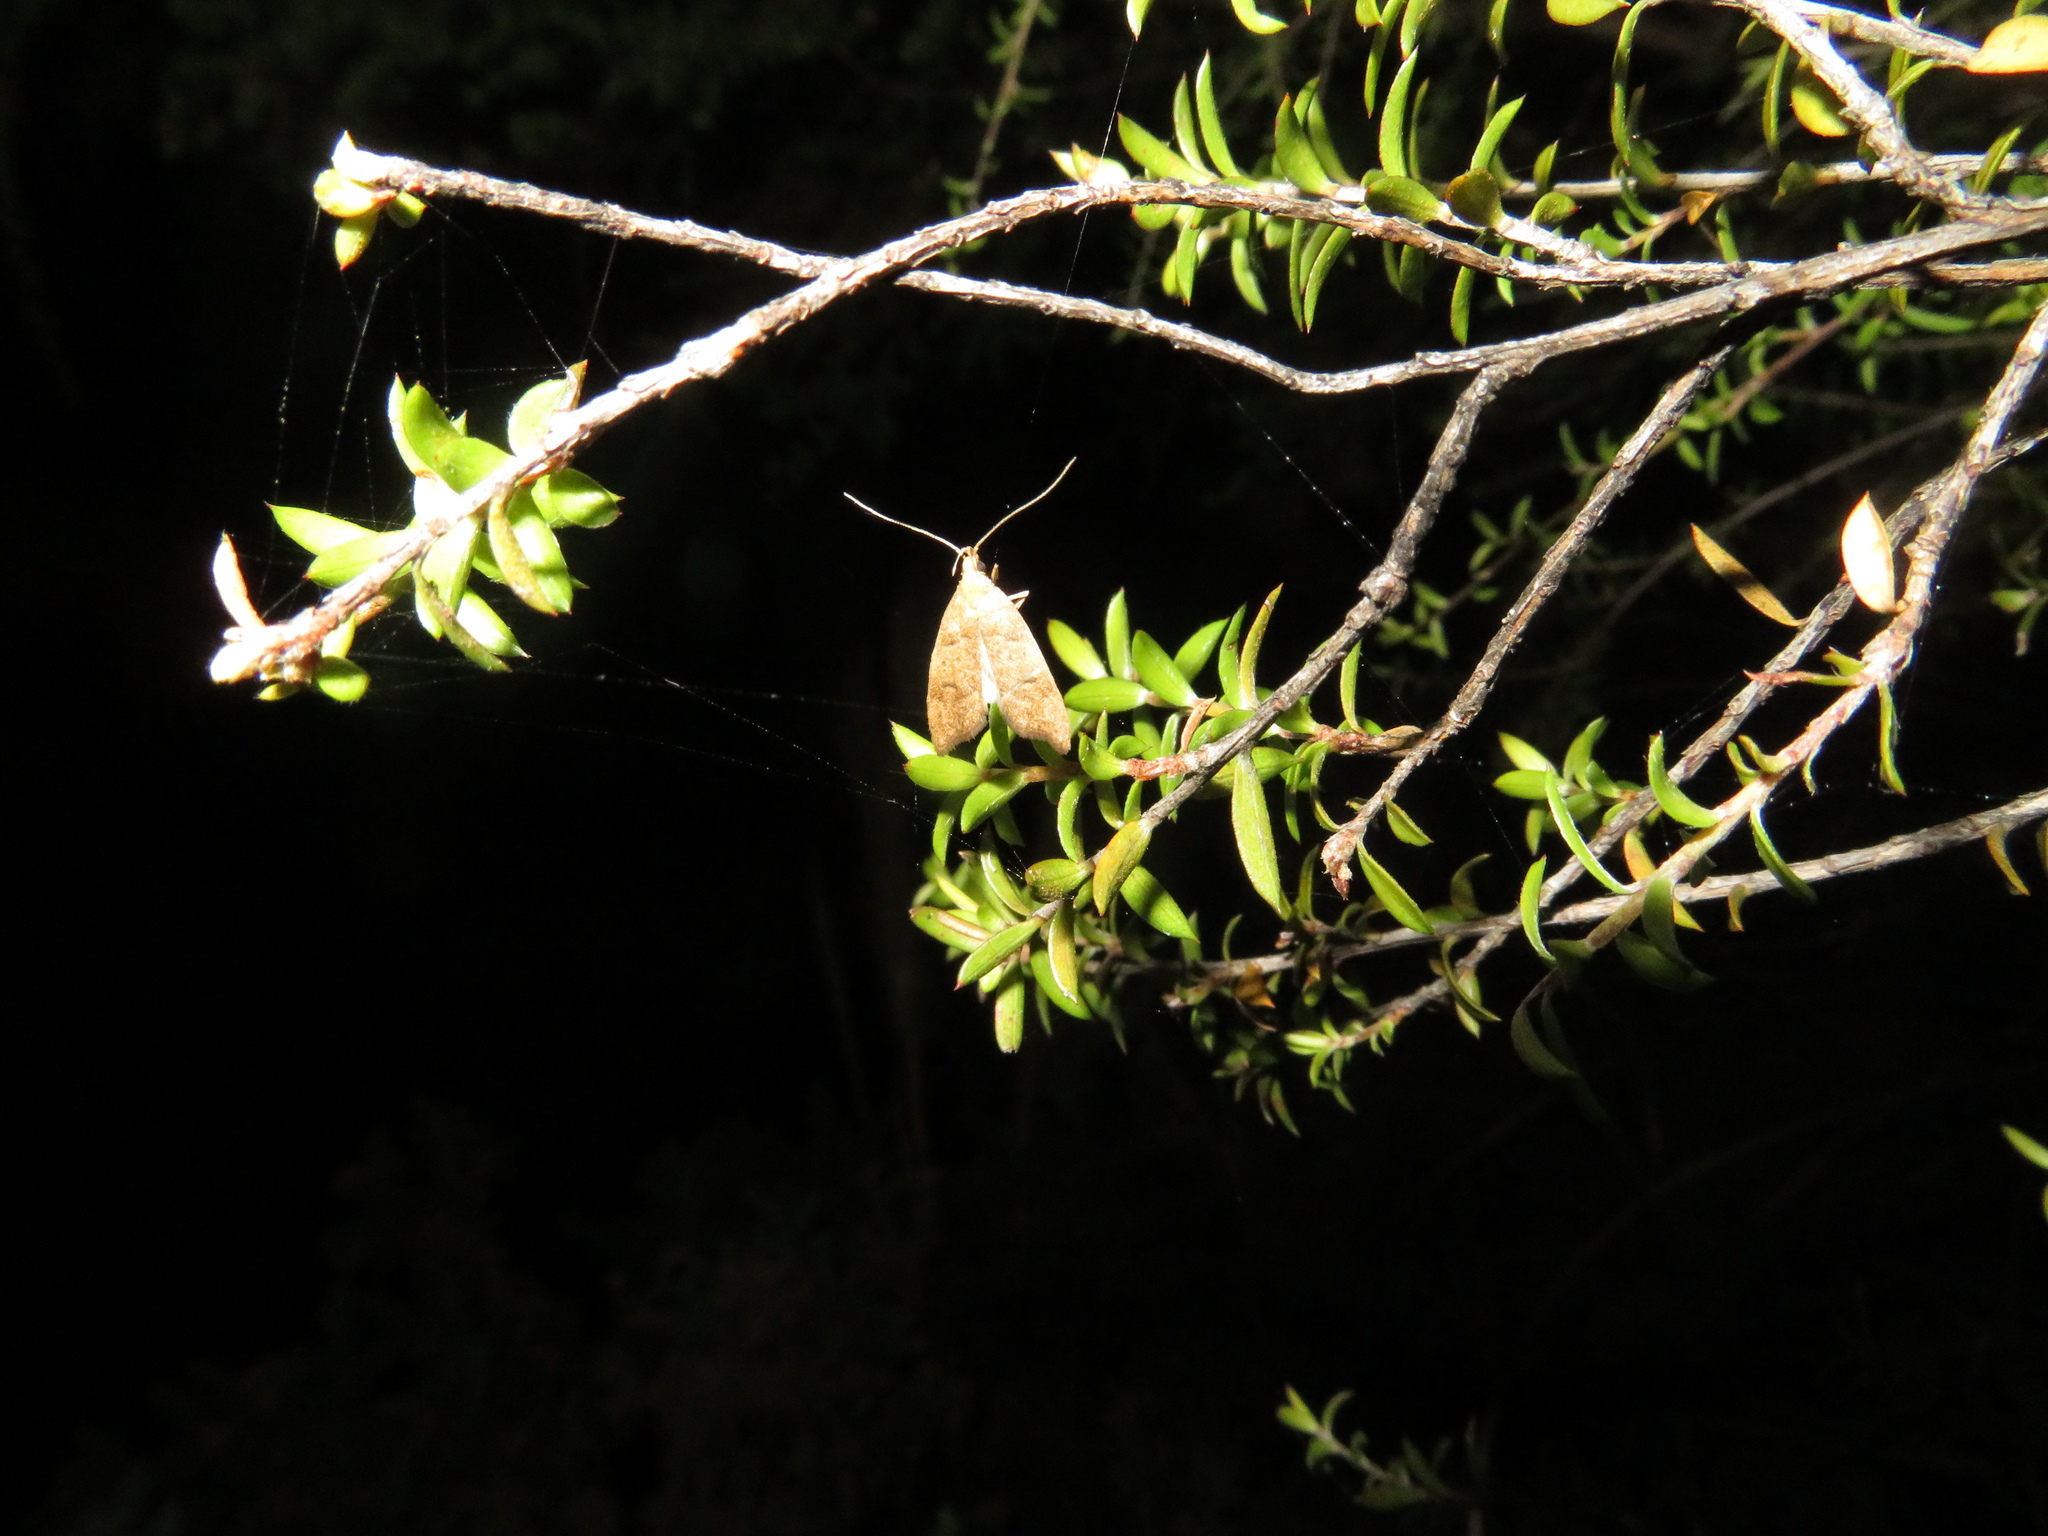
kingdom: Animalia
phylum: Arthropoda
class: Insecta
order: Lepidoptera
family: Oecophoridae
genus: Gymnobathra
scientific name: Gymnobathra hamatella
